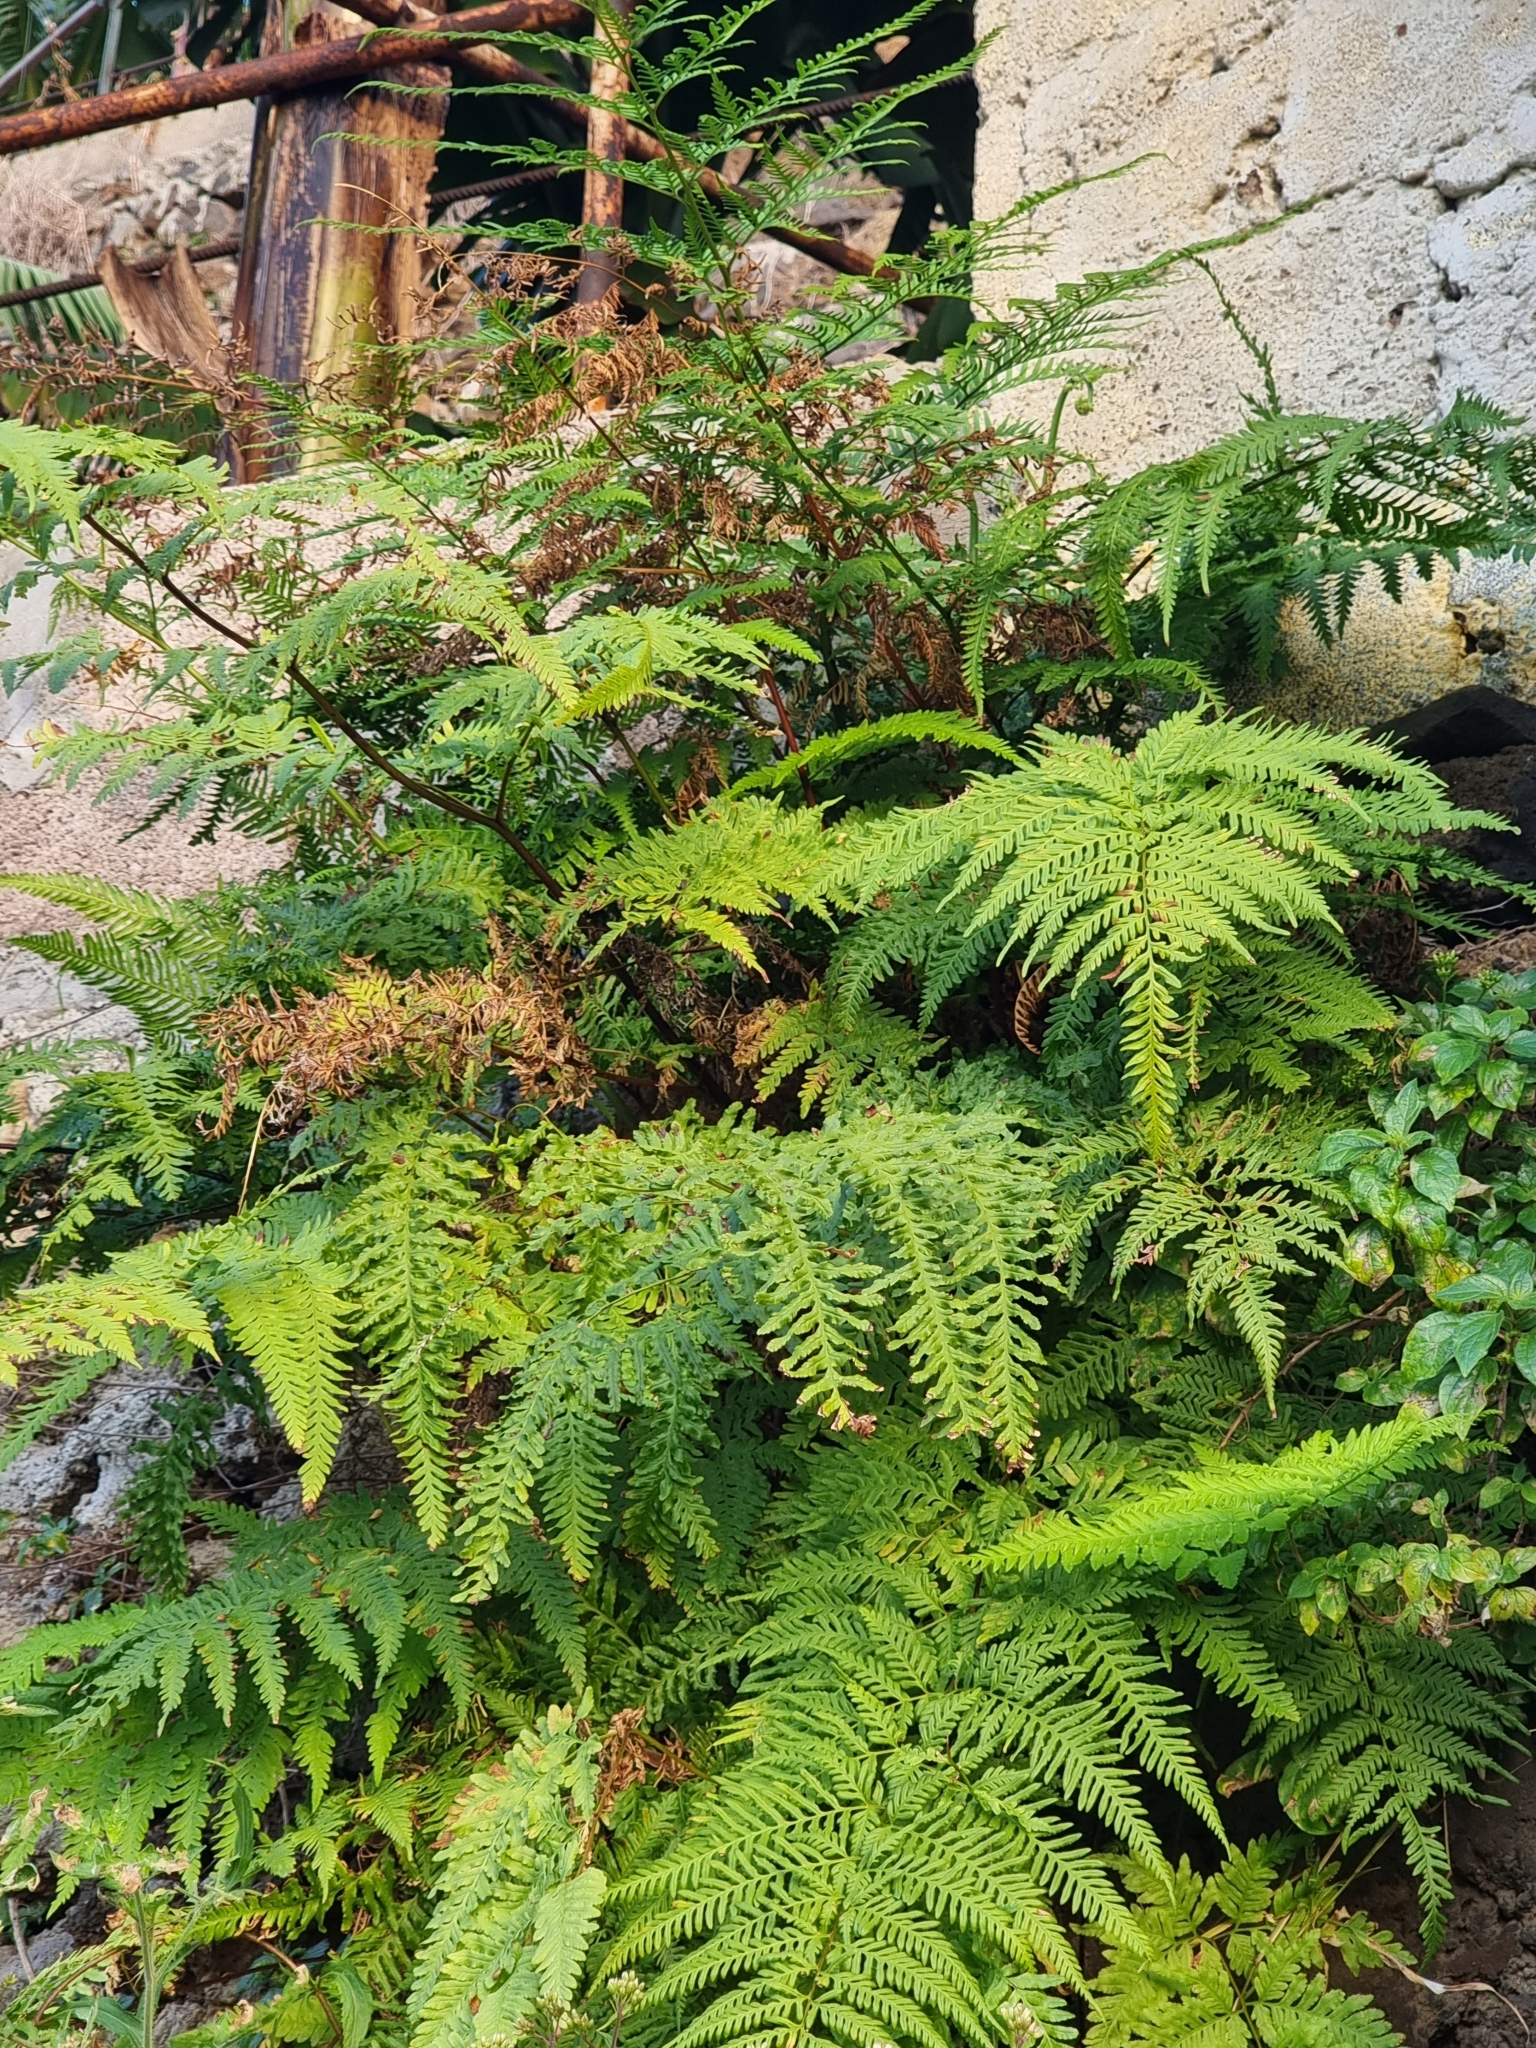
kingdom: Plantae
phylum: Tracheophyta
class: Polypodiopsida
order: Polypodiales
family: Pteridaceae
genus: Pteris
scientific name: Pteris tremula
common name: Australian brake
